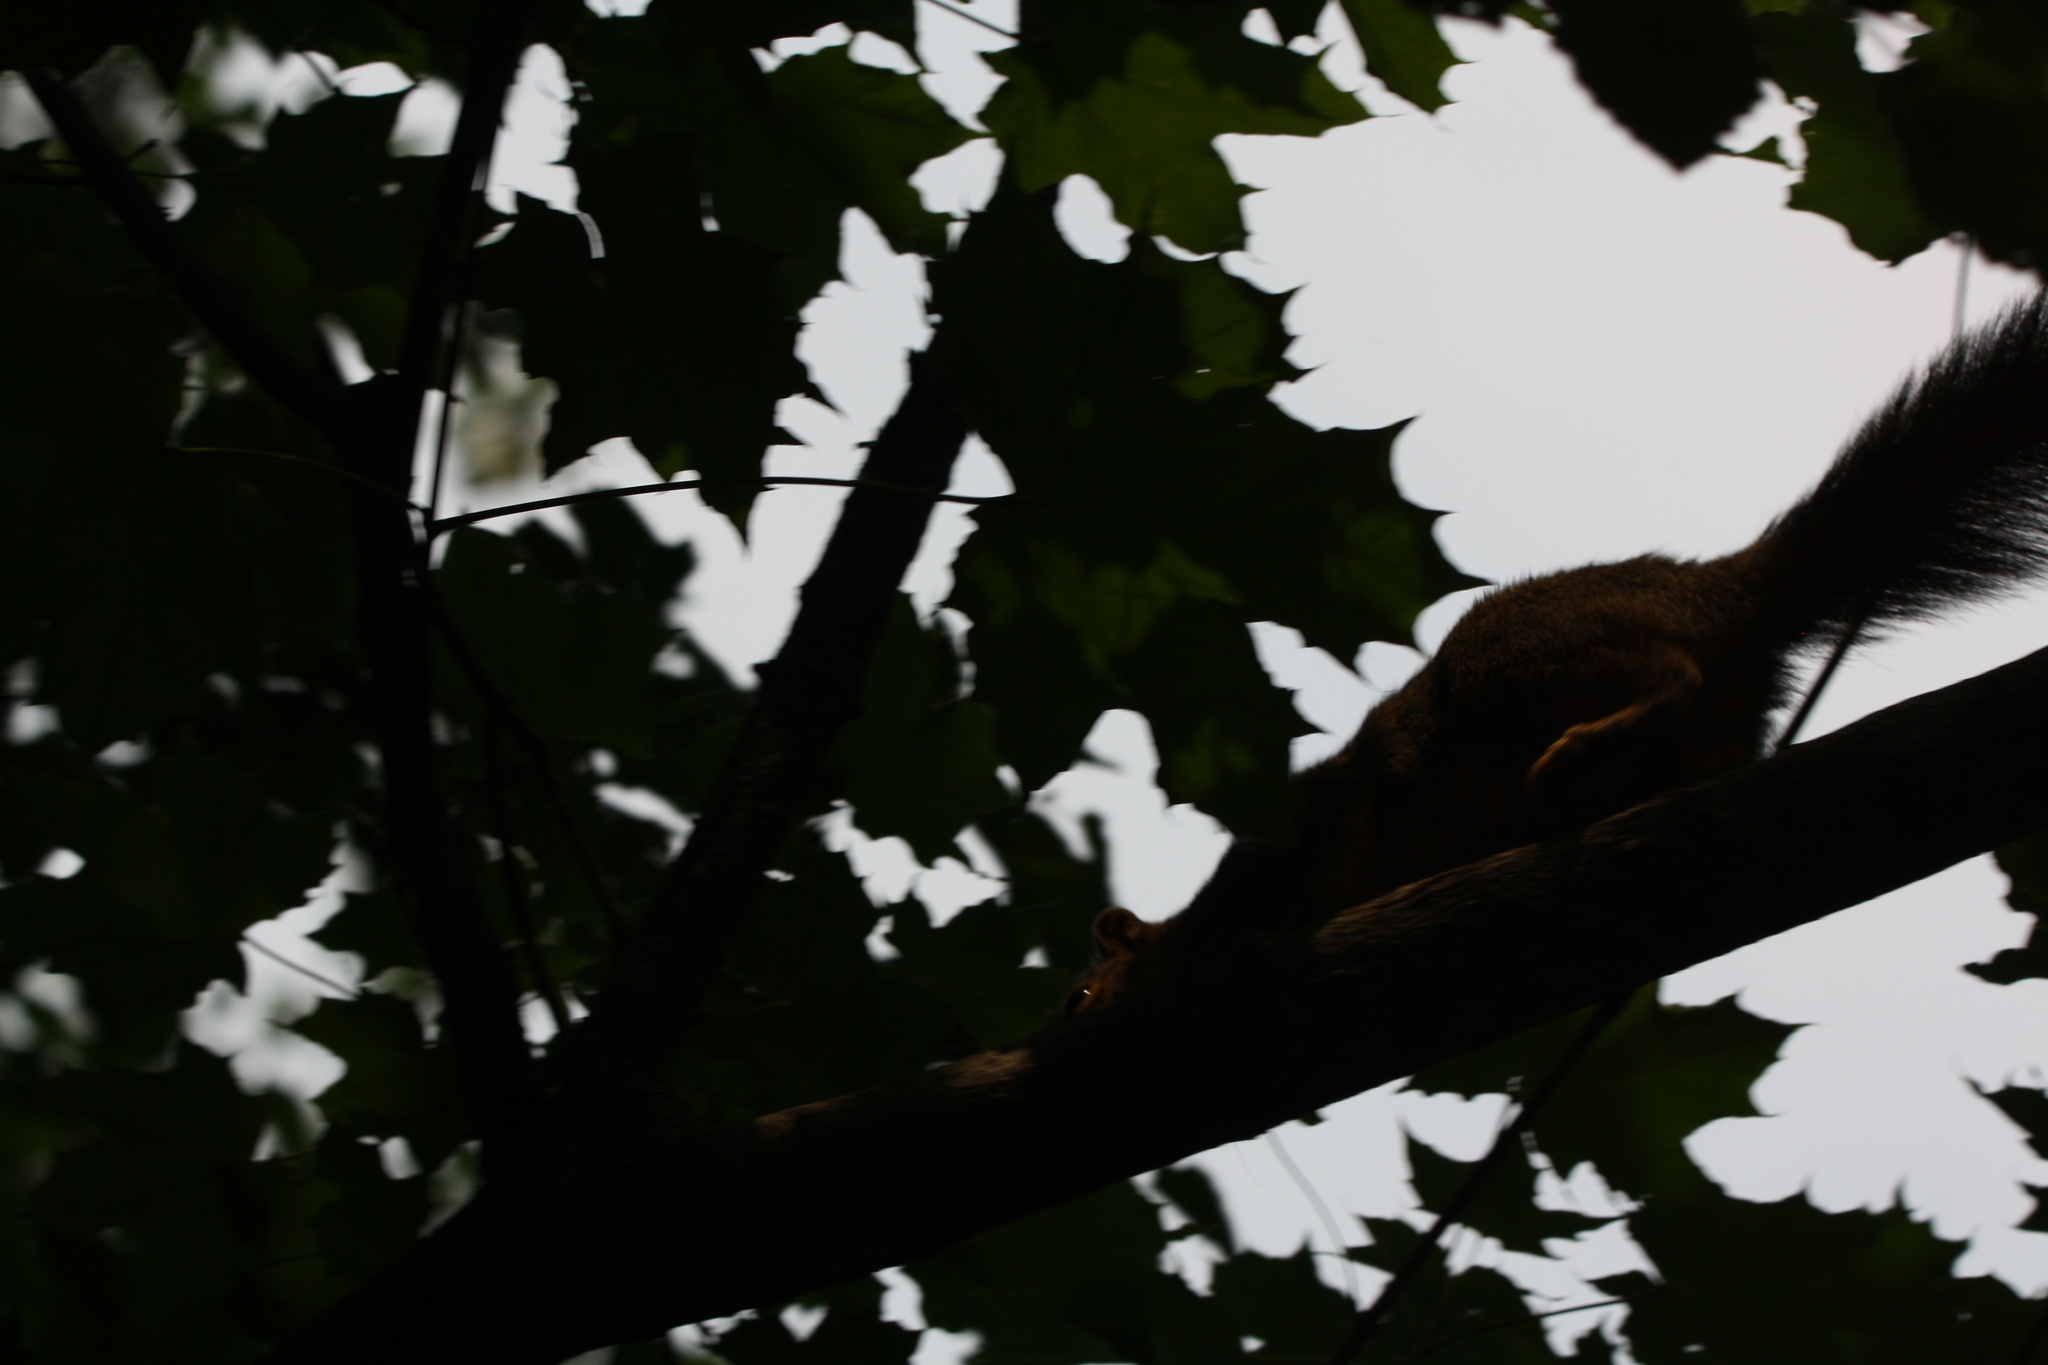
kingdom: Animalia
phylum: Chordata
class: Mammalia
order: Rodentia
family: Sciuridae
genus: Sciurus
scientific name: Sciurus niger
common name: Fox squirrel
